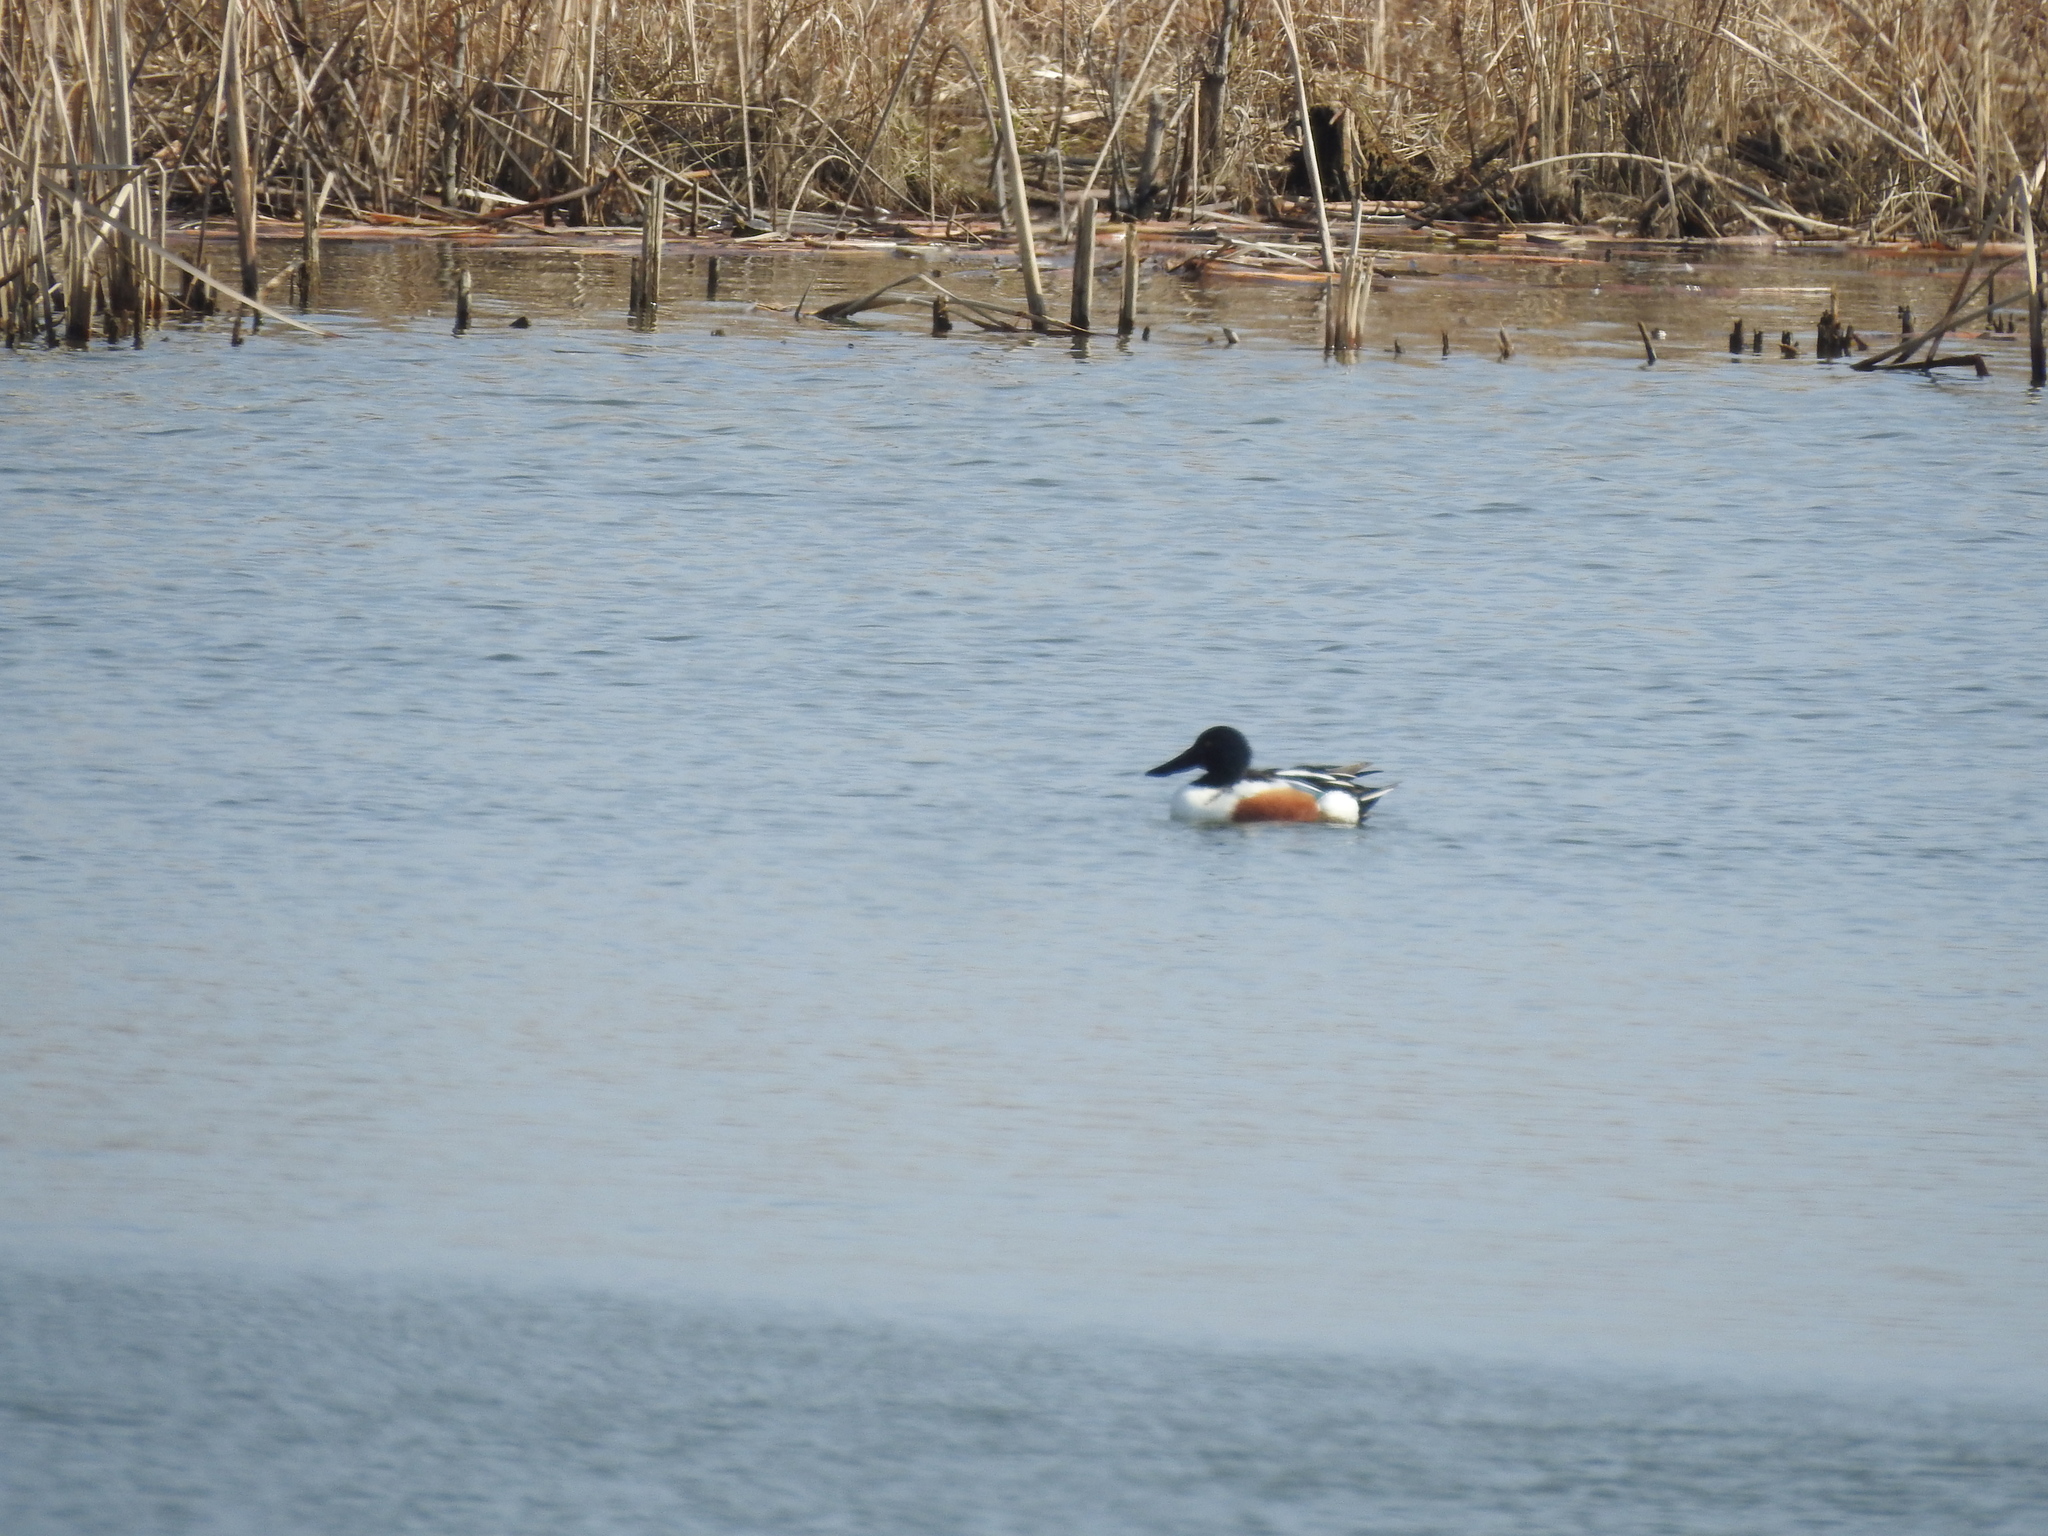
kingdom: Animalia
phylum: Chordata
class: Aves
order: Anseriformes
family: Anatidae
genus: Spatula
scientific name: Spatula clypeata
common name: Northern shoveler
